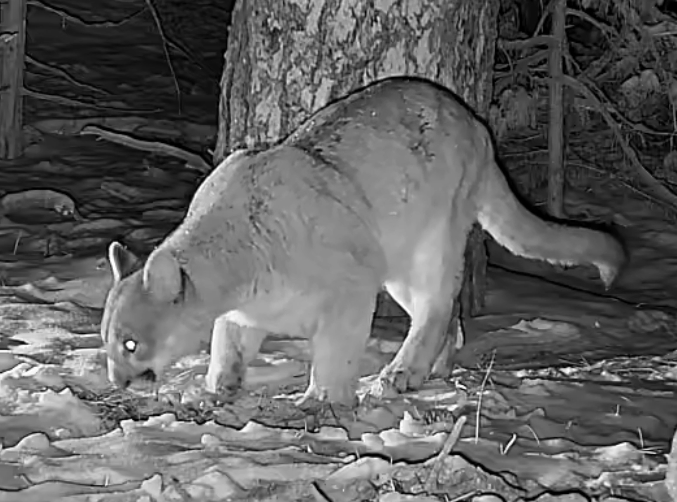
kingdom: Animalia
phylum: Chordata
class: Mammalia
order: Carnivora
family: Felidae
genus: Puma
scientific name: Puma concolor
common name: Puma
